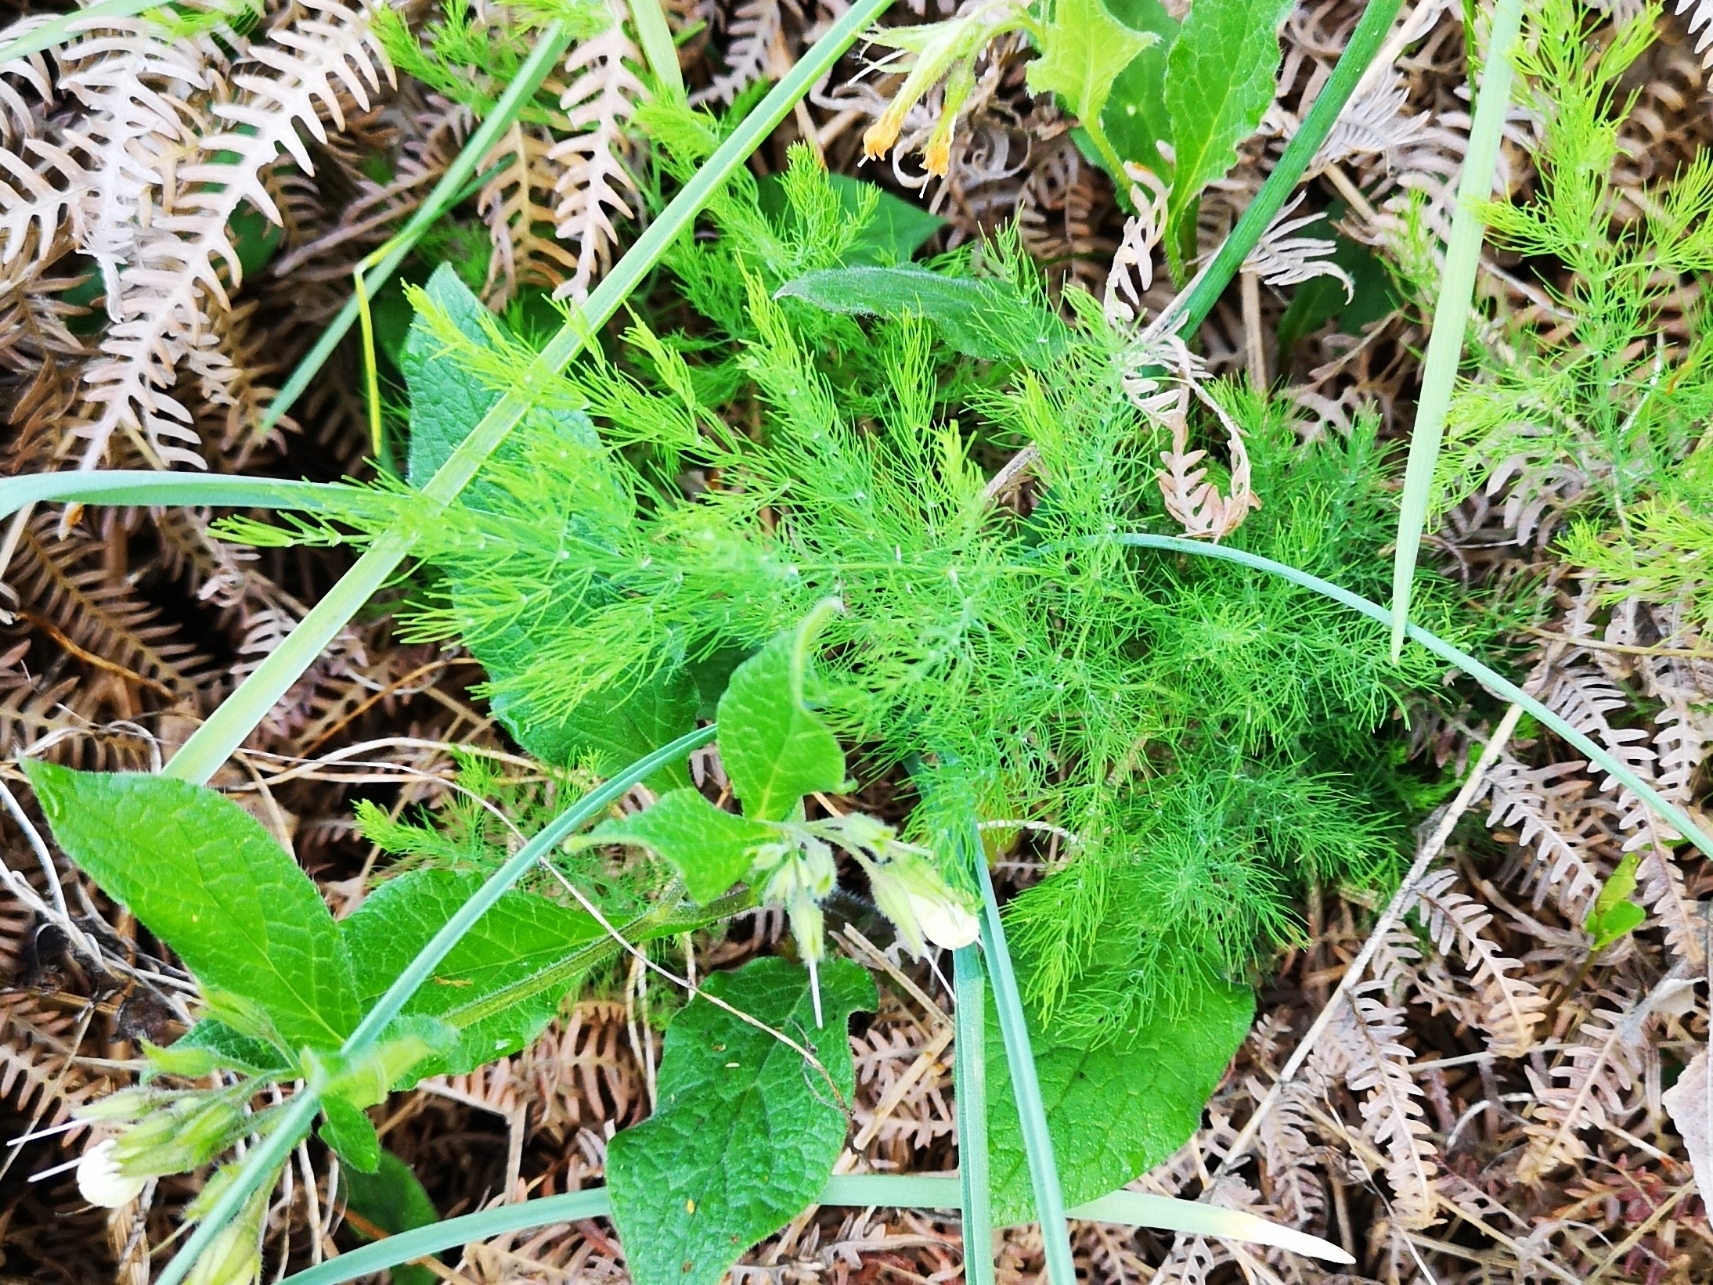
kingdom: Plantae
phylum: Tracheophyta
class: Liliopsida
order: Asparagales
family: Asparagaceae
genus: Asparagus
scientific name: Asparagus tenuifolius
